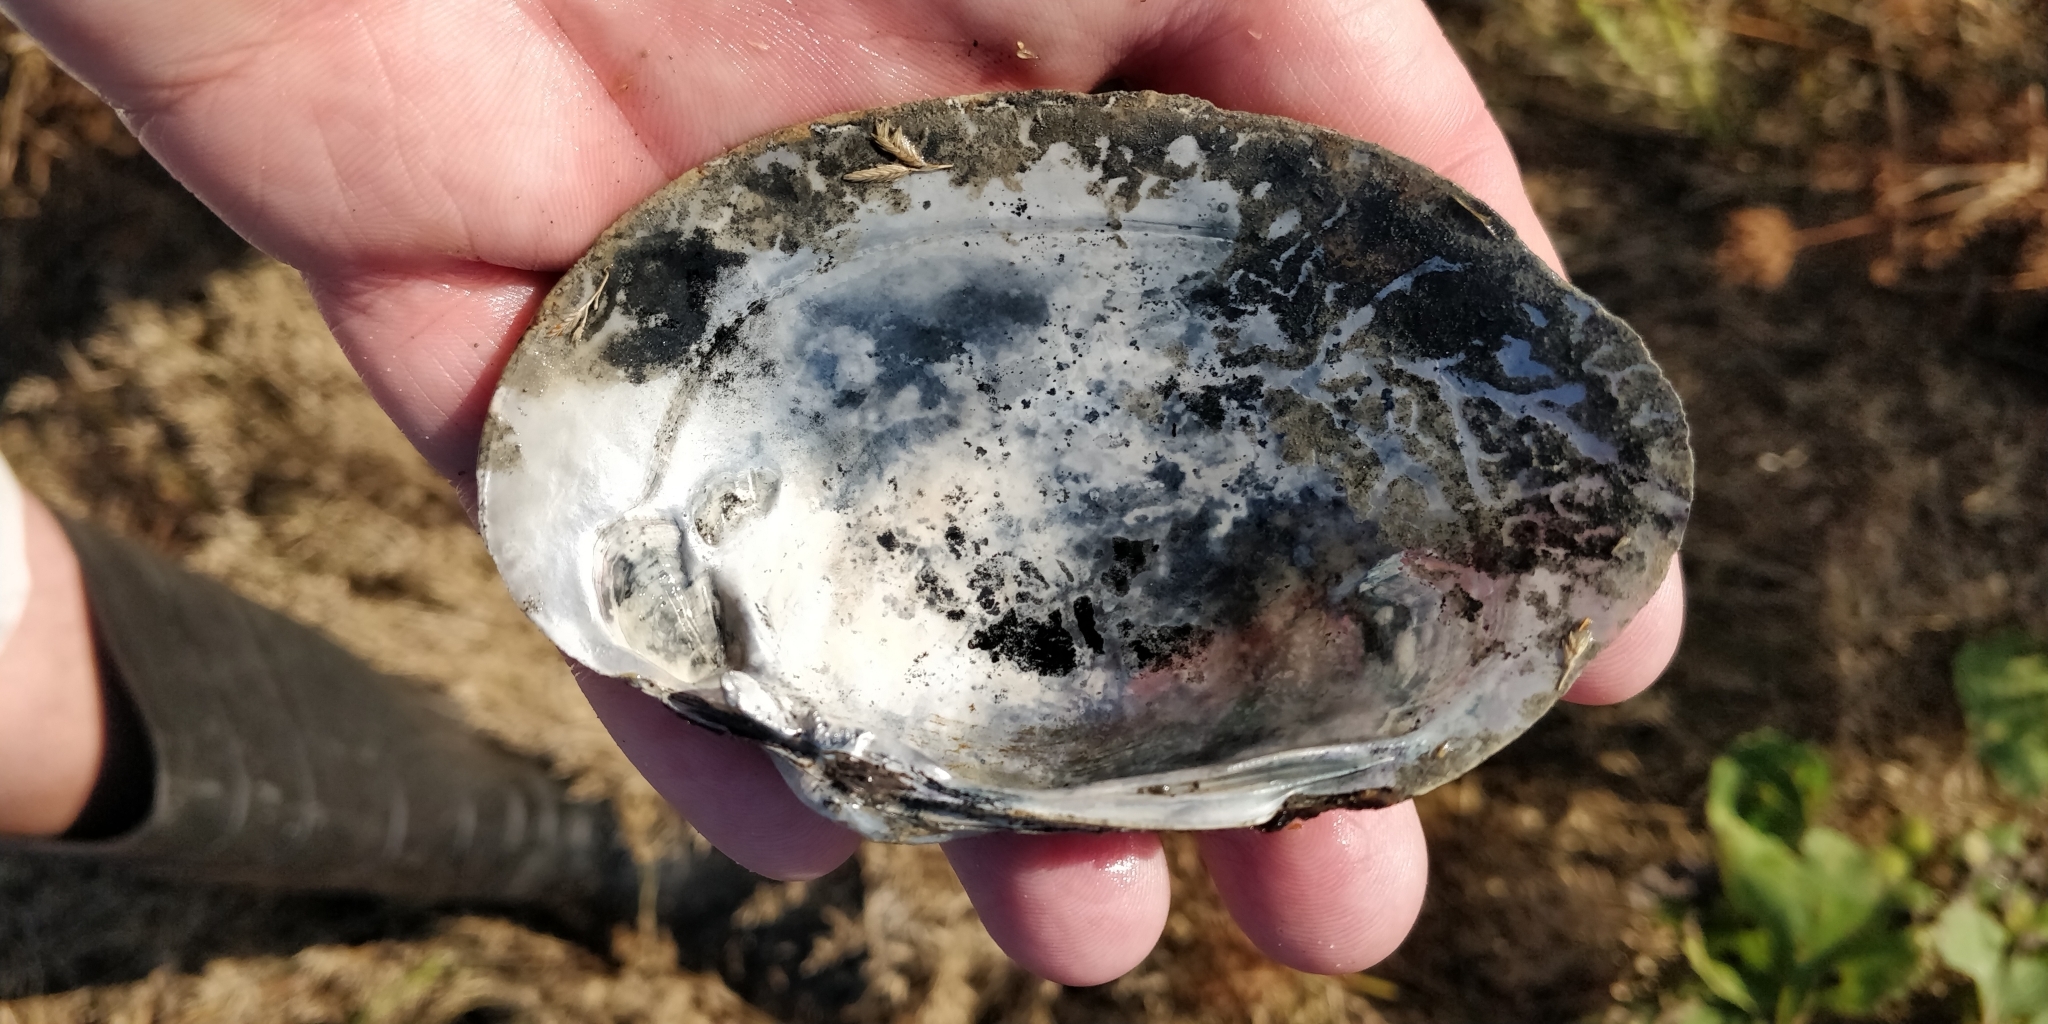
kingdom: Animalia
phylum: Mollusca
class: Bivalvia
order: Unionida
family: Unionidae
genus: Lampsilis
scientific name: Lampsilis cardium
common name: Plain pocketbook
